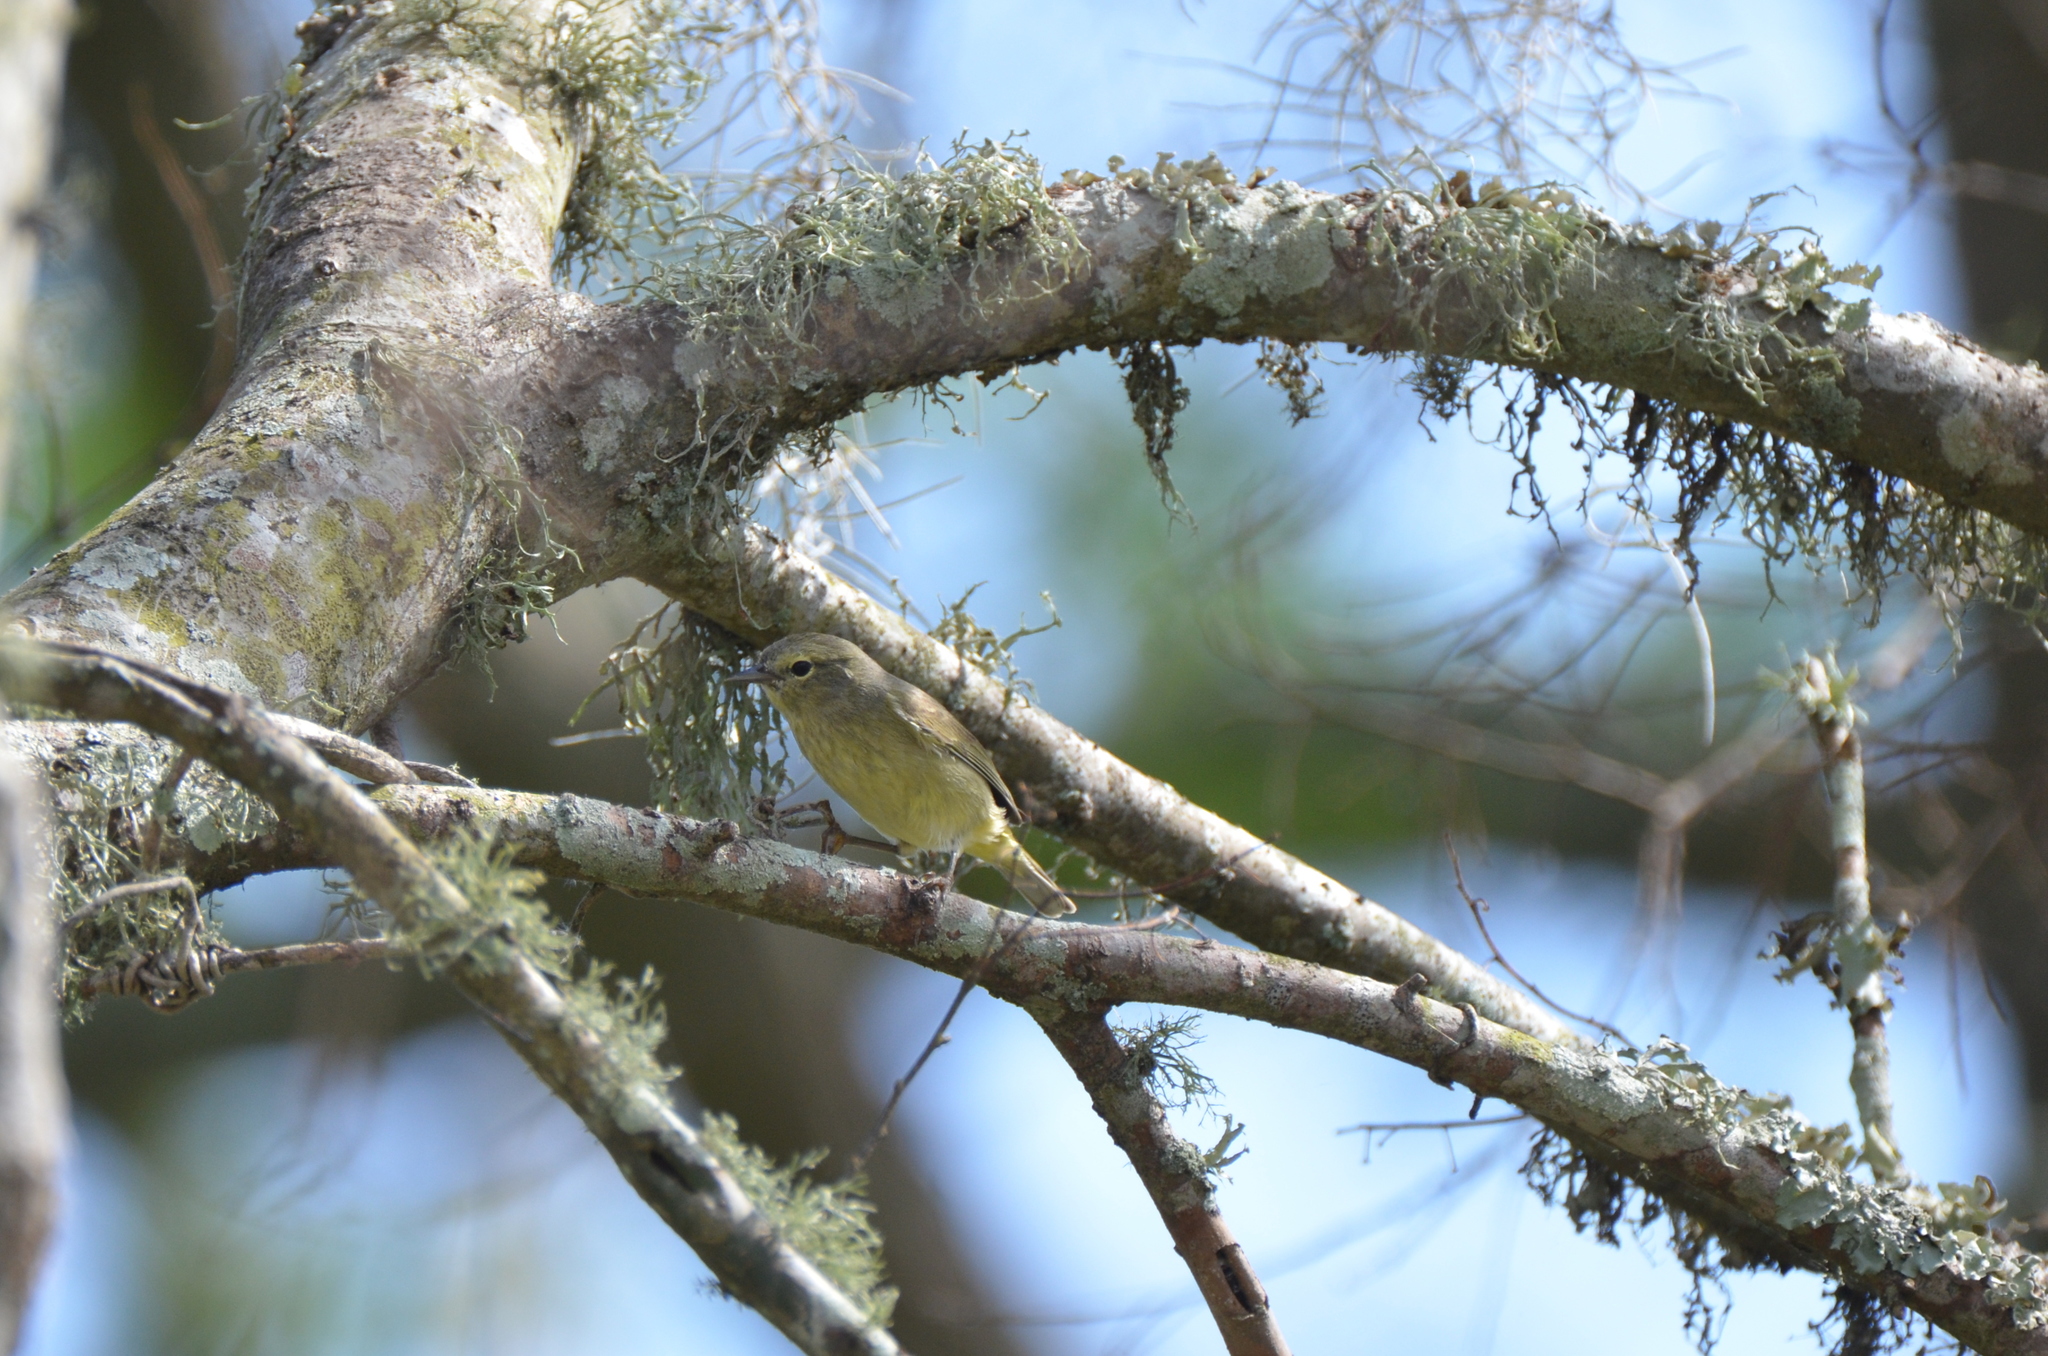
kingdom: Animalia
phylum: Chordata
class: Aves
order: Passeriformes
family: Parulidae
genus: Leiothlypis
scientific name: Leiothlypis celata
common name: Orange-crowned warbler
